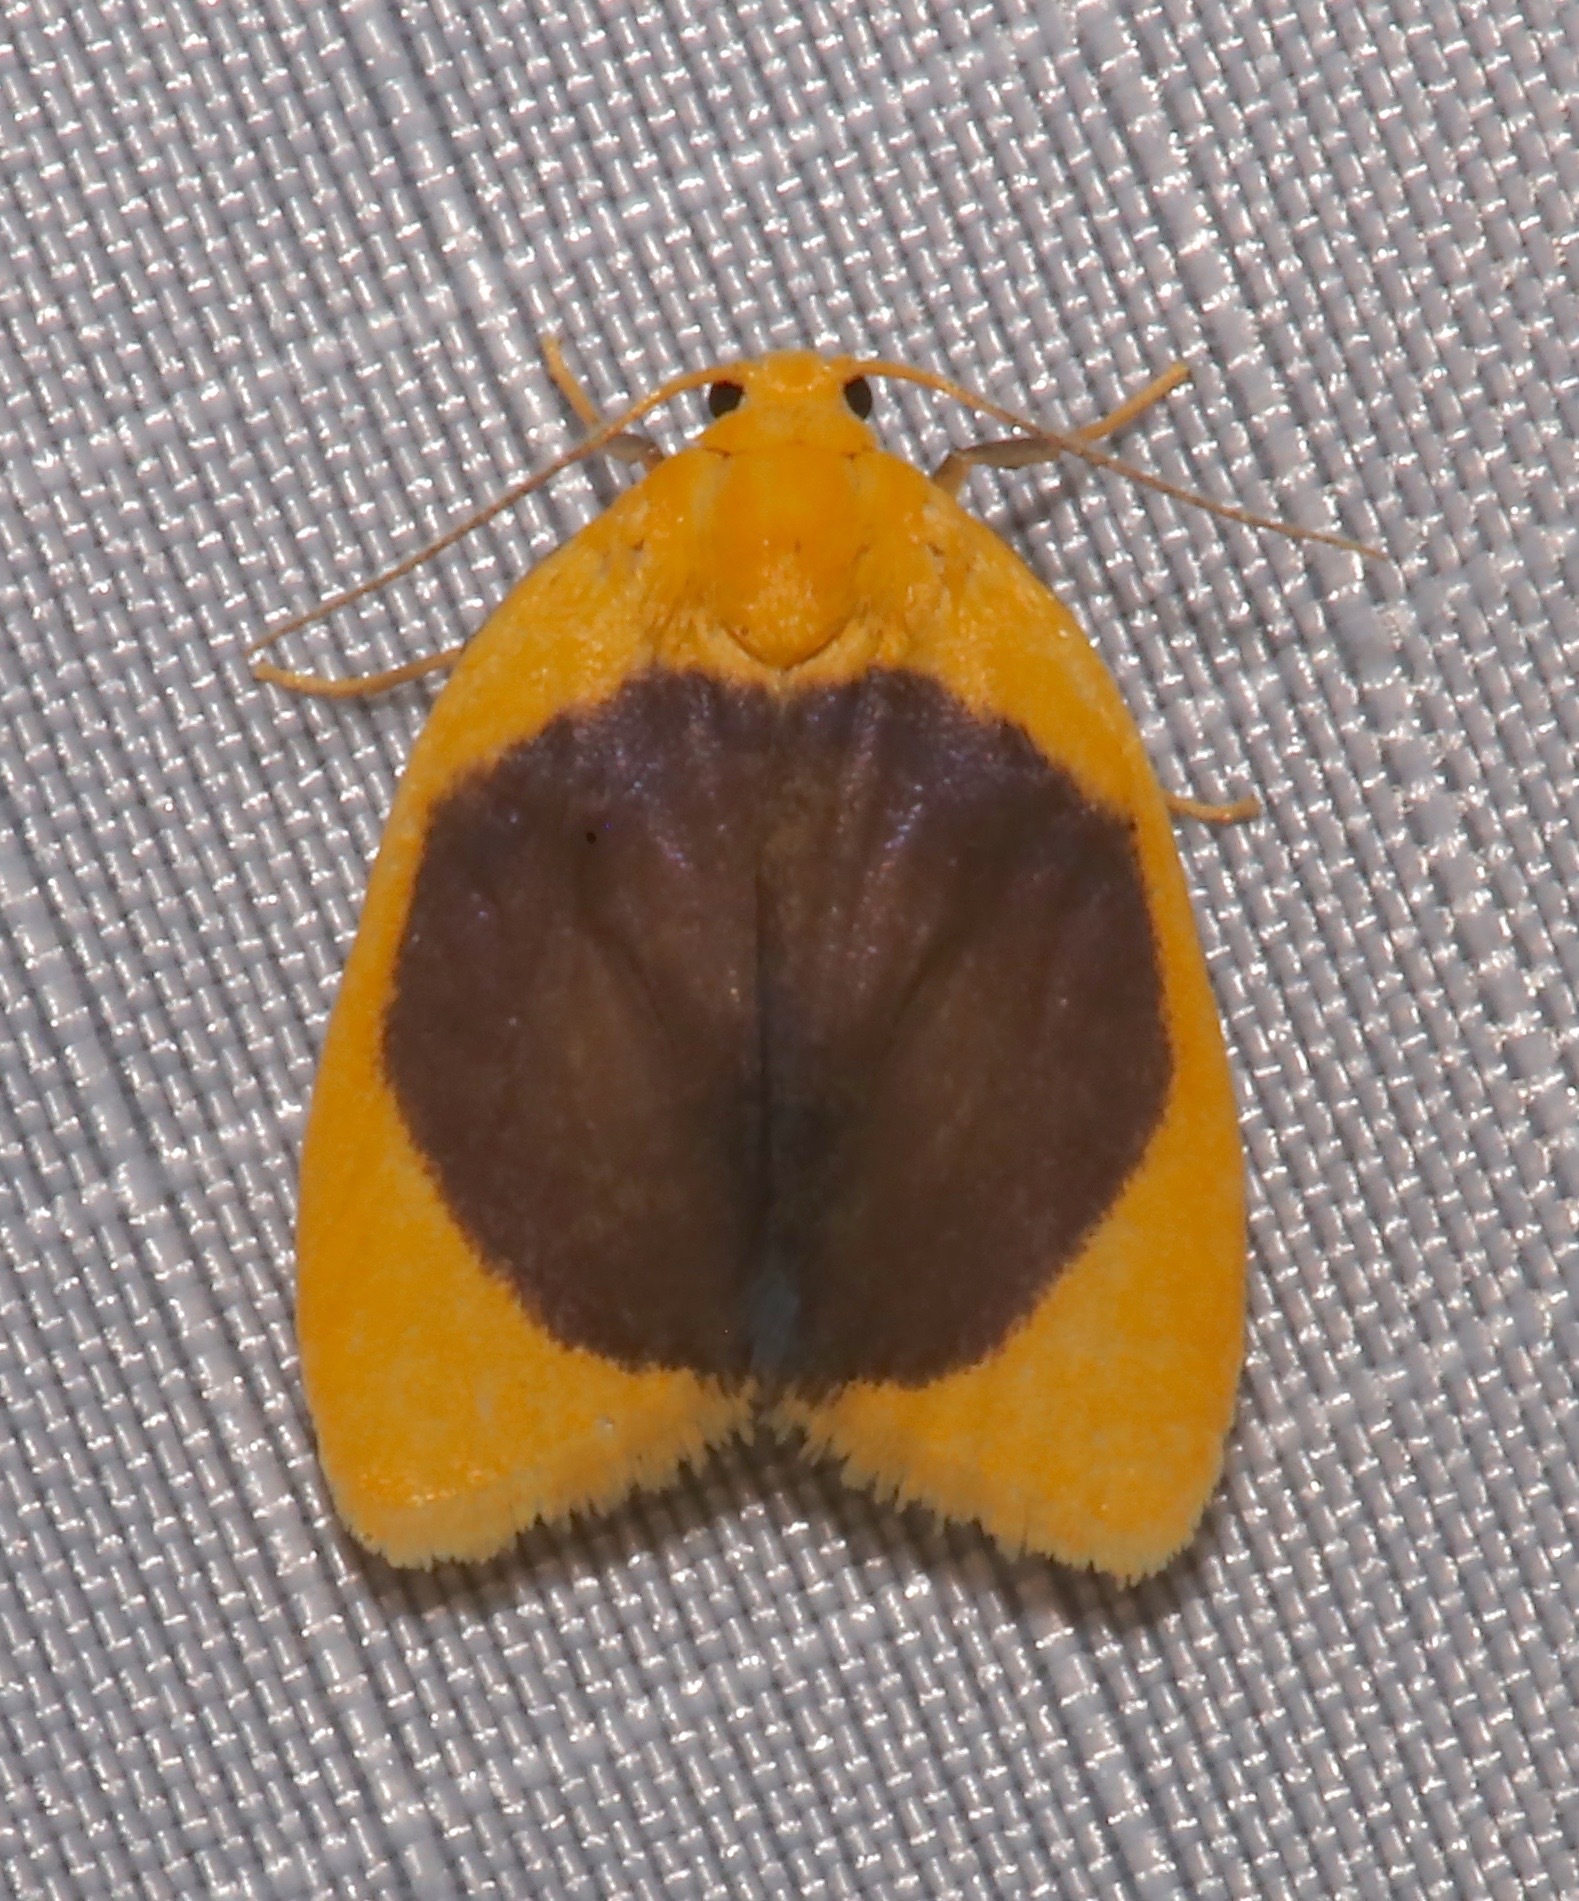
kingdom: Animalia
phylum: Arthropoda
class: Insecta
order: Lepidoptera
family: Erebidae
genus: Pronola
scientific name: Pronola magniplaga
